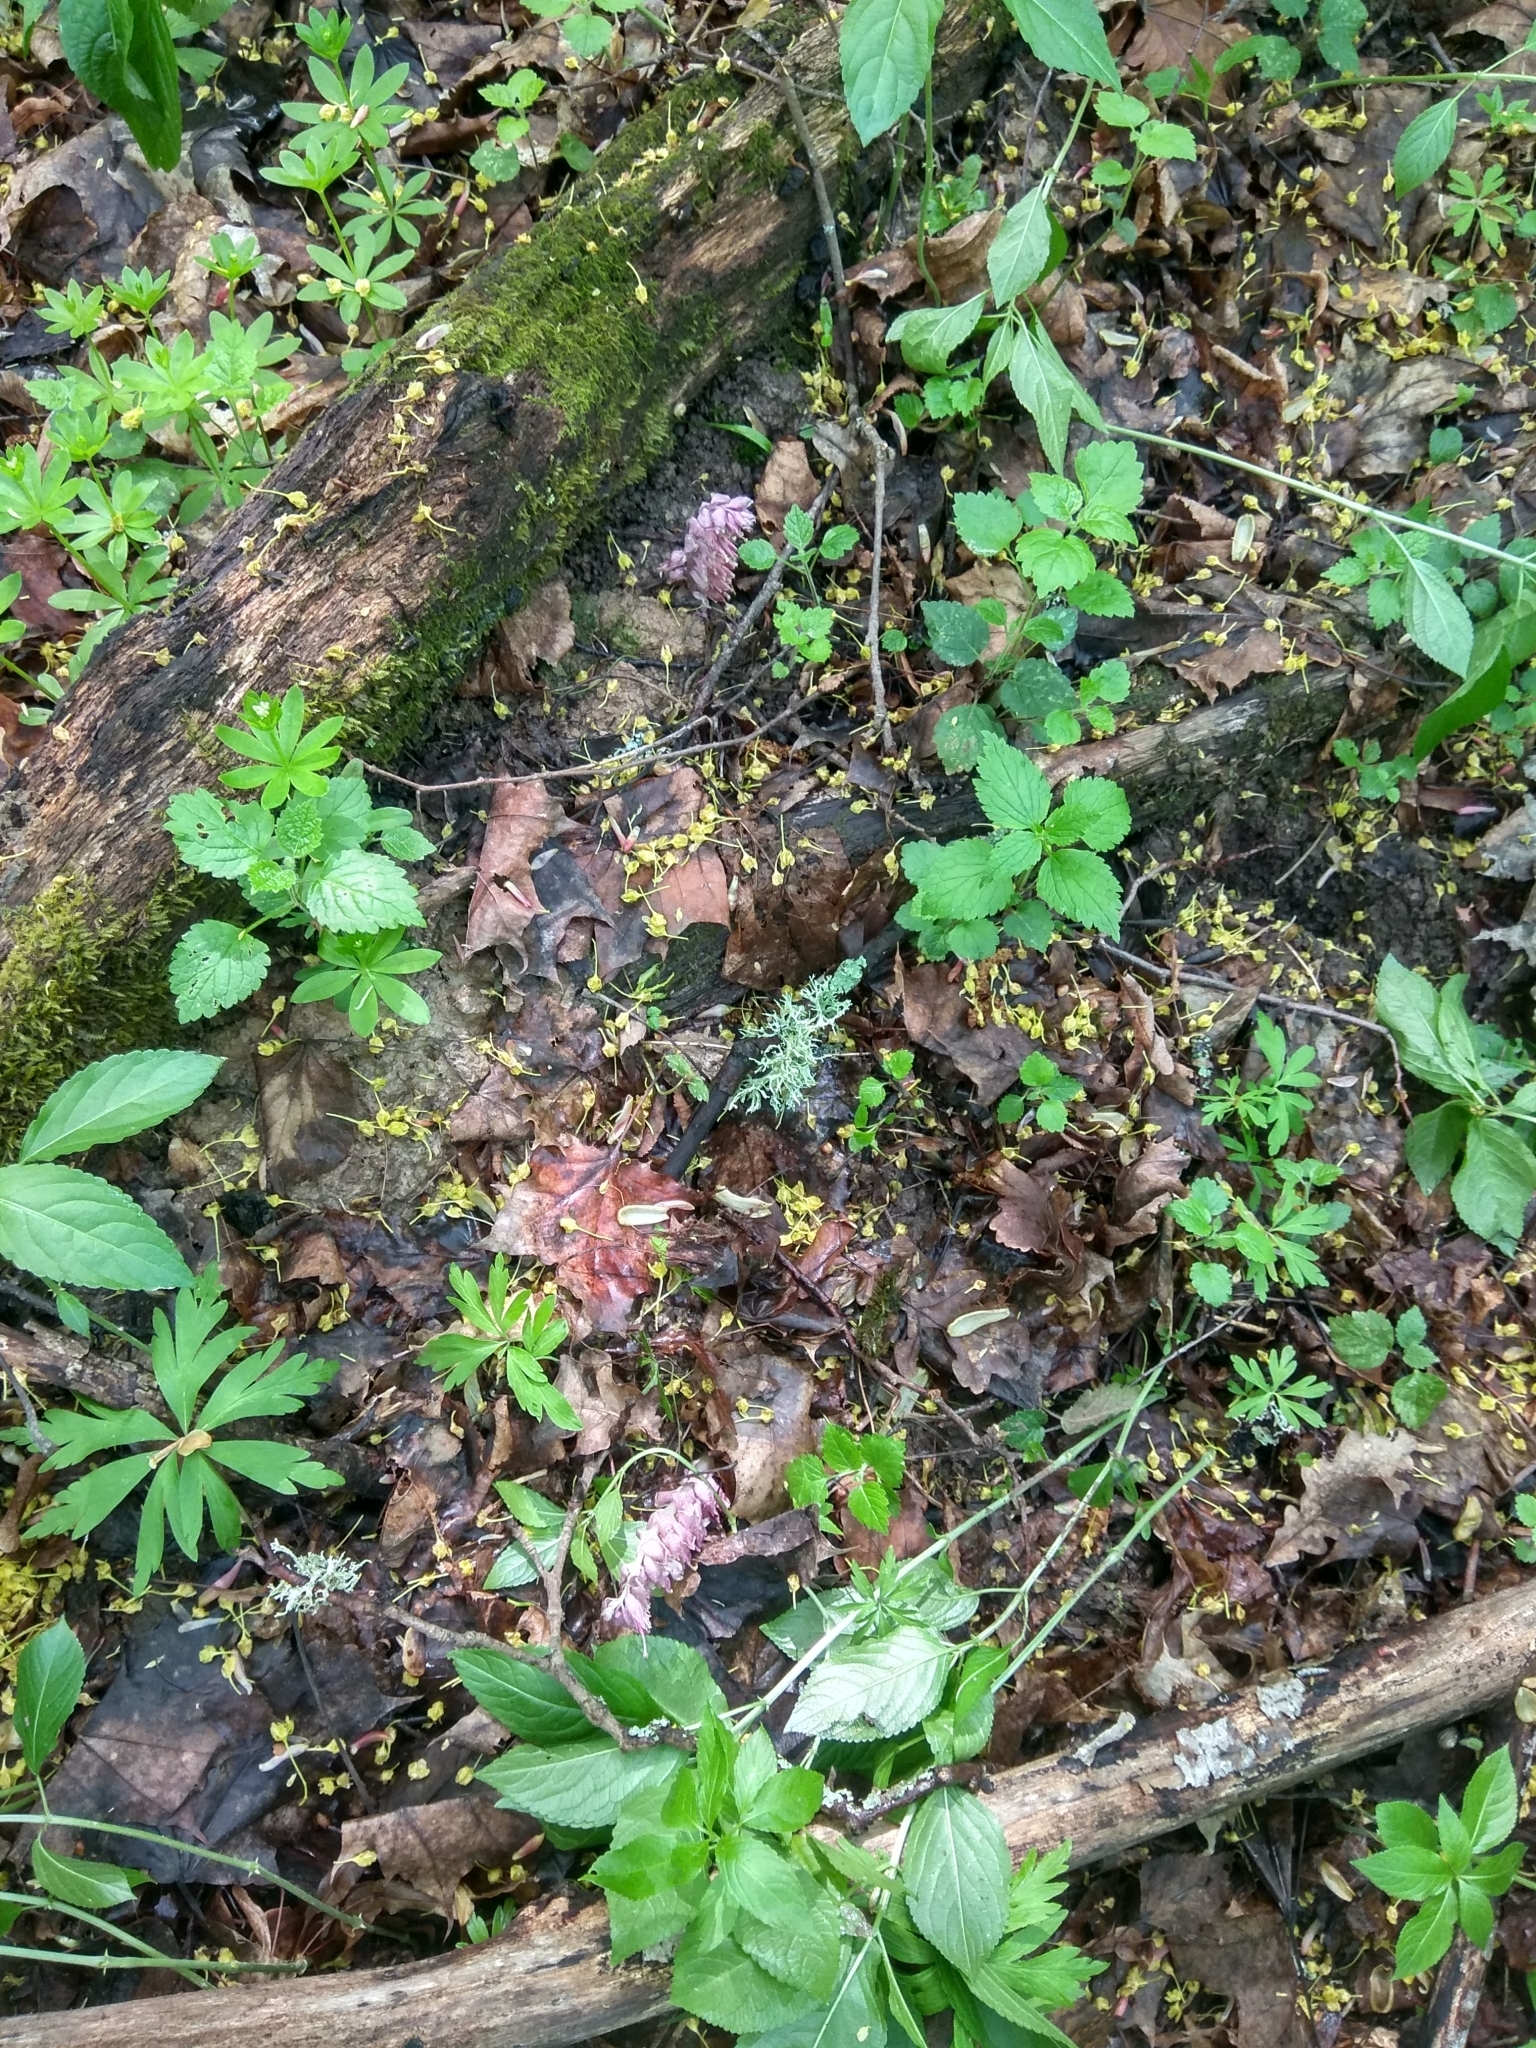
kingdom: Plantae
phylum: Tracheophyta
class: Magnoliopsida
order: Lamiales
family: Orobanchaceae
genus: Lathraea
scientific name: Lathraea squamaria
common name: Toothwort
